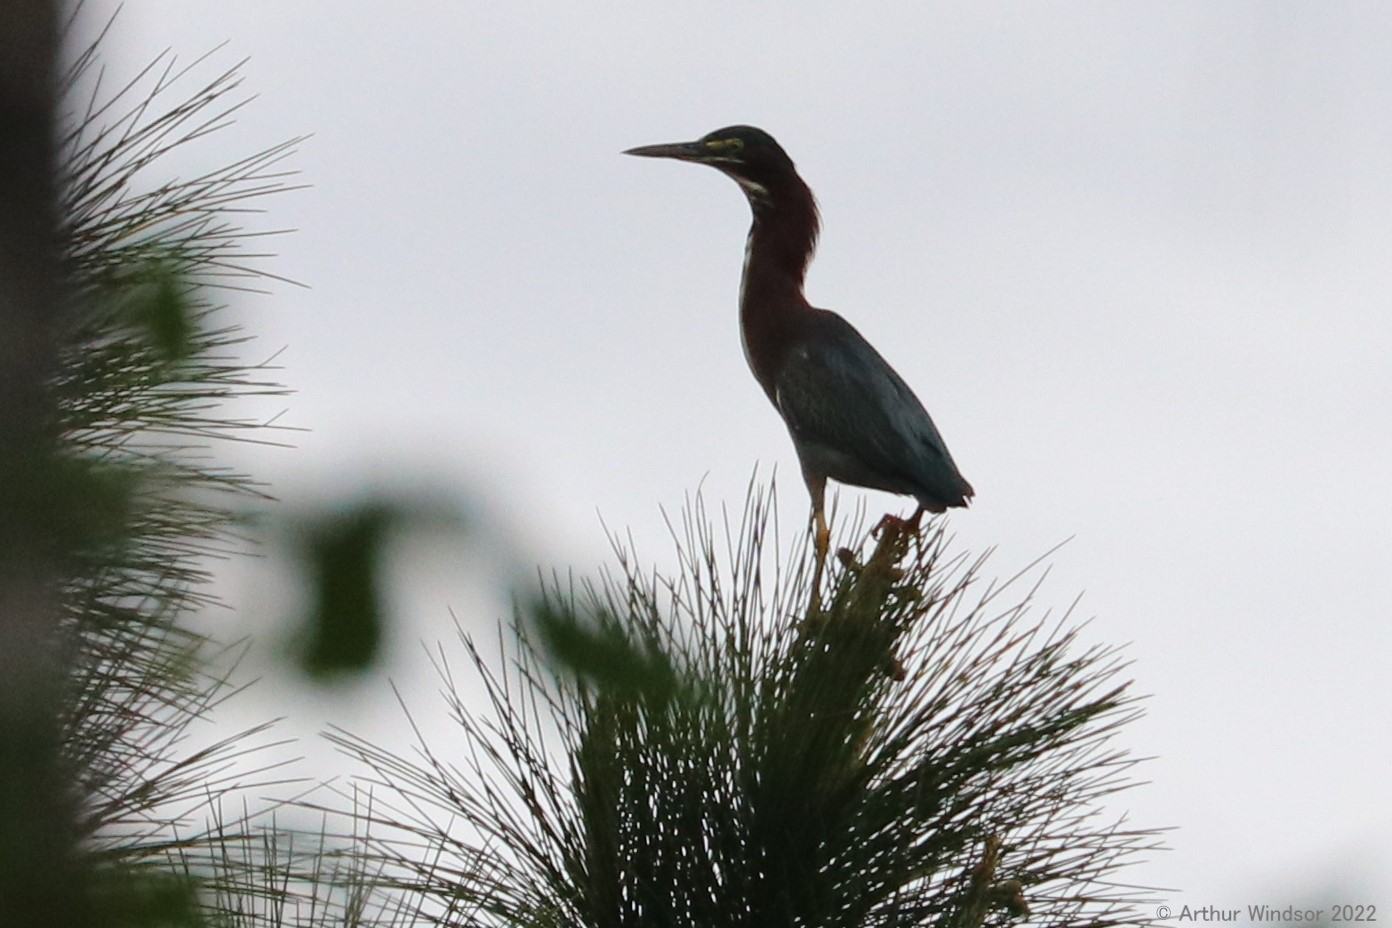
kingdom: Animalia
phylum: Chordata
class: Aves
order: Pelecaniformes
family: Ardeidae
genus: Butorides
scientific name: Butorides virescens
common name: Green heron
